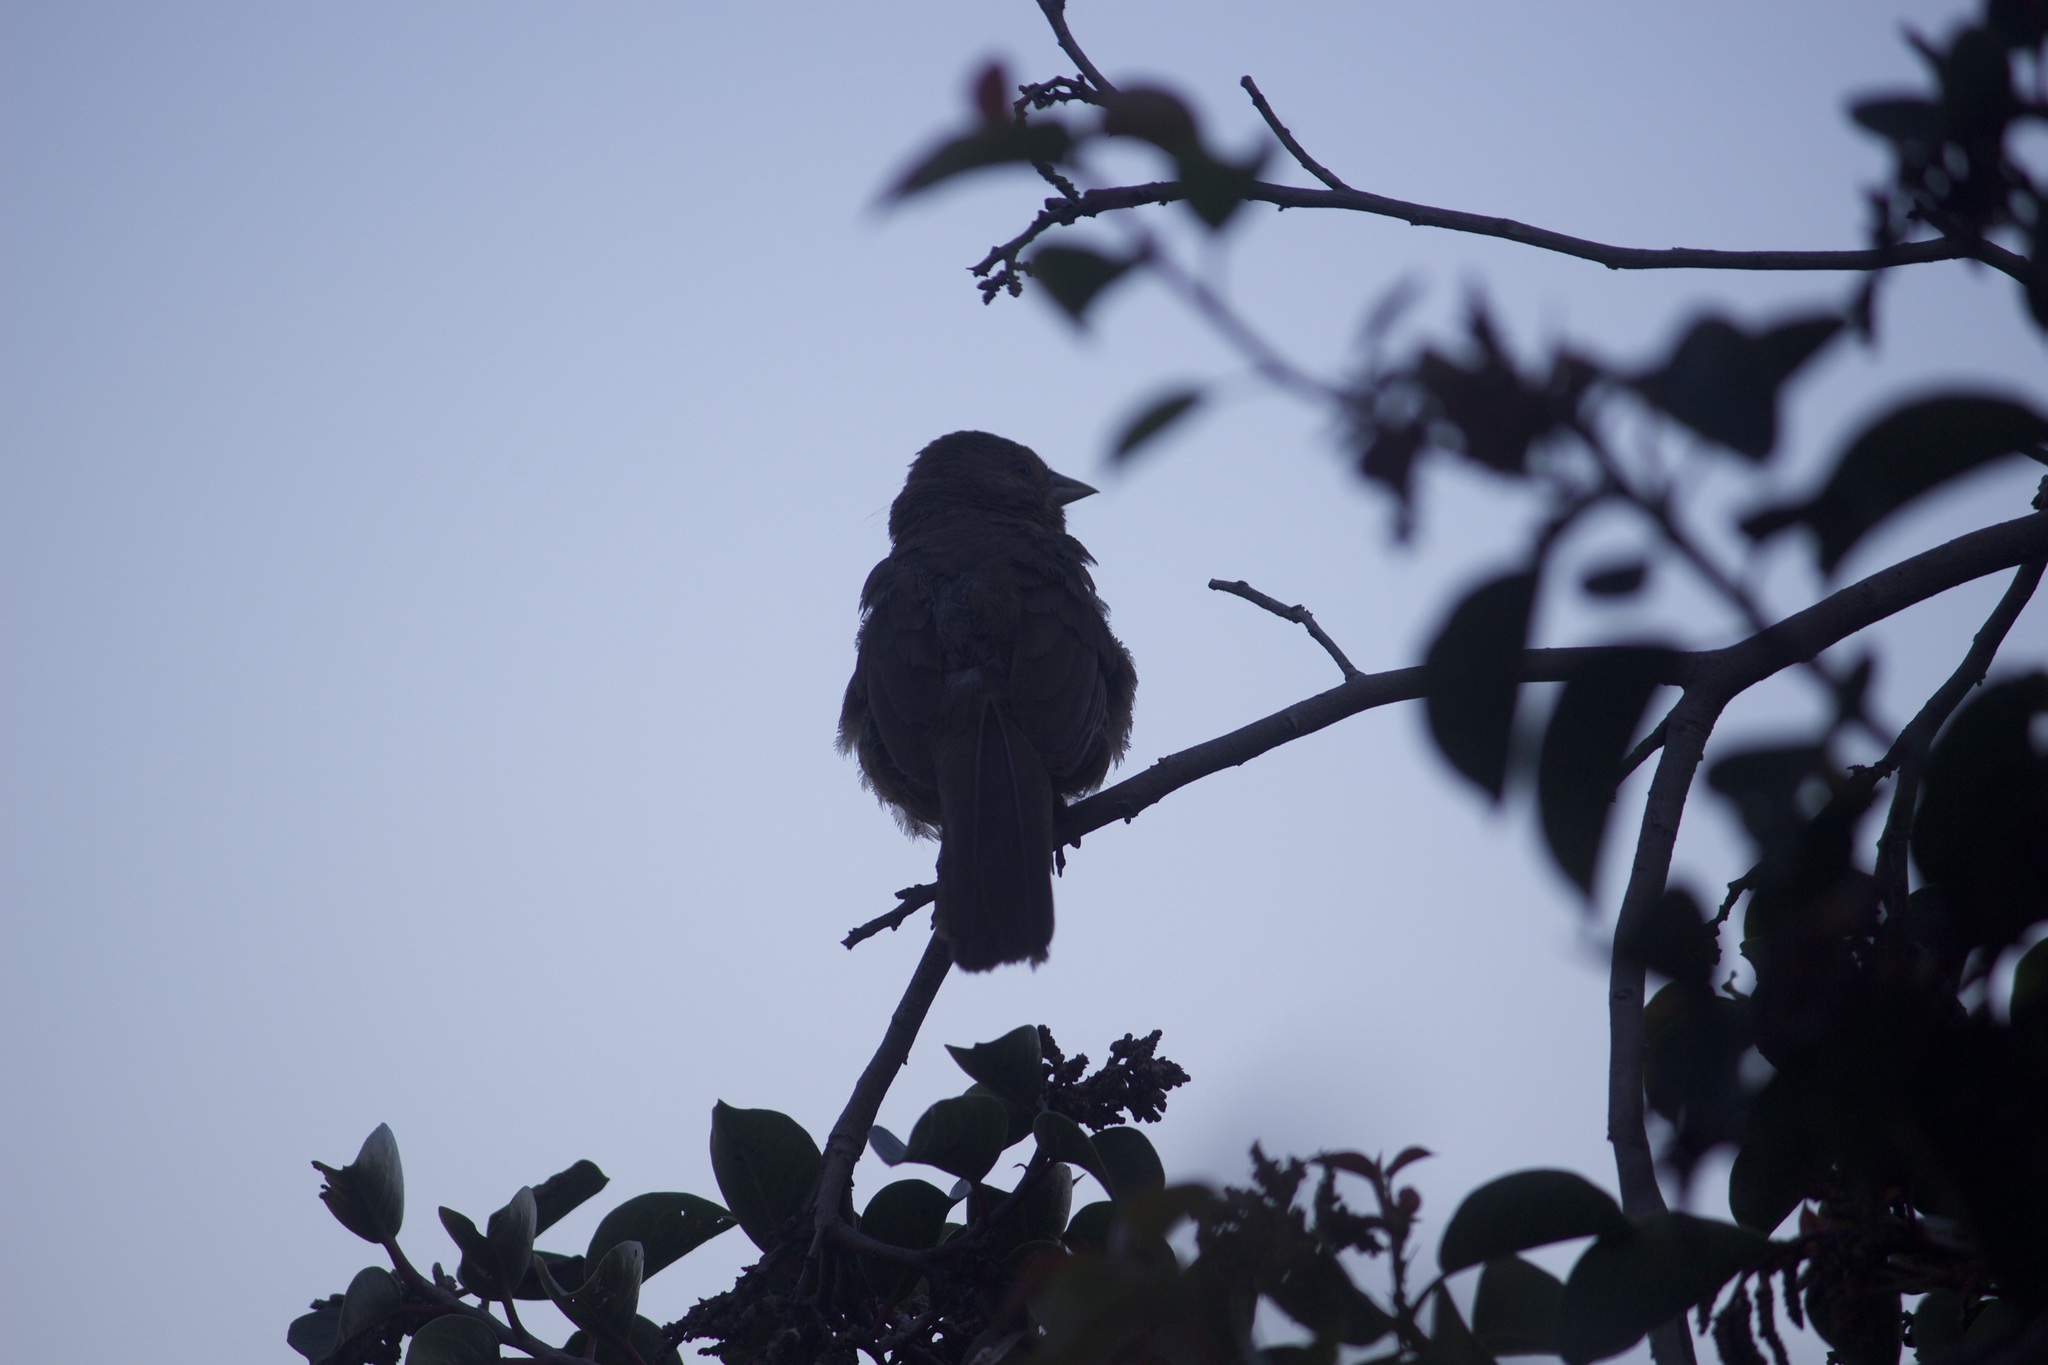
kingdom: Animalia
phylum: Chordata
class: Aves
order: Passeriformes
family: Passerellidae
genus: Melozone
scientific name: Melozone crissalis
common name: California towhee
